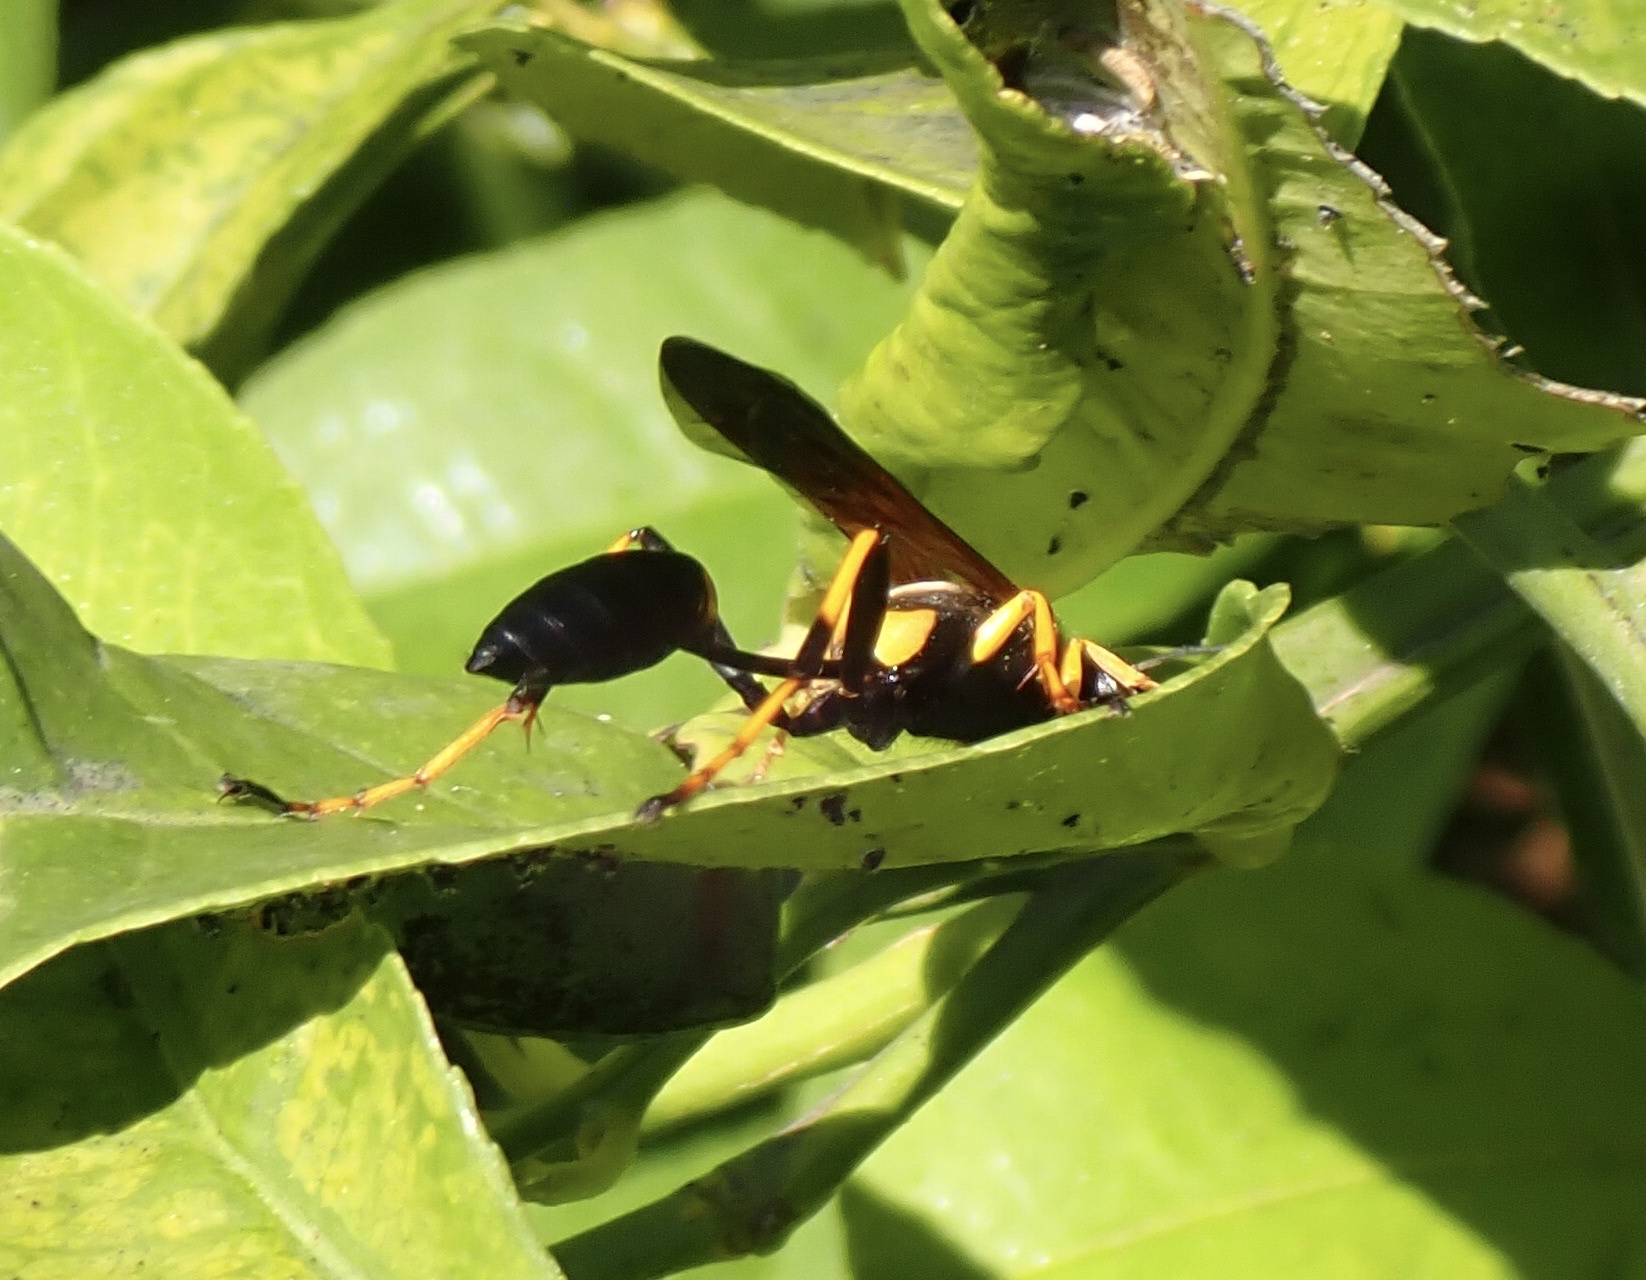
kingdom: Animalia
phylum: Arthropoda
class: Insecta
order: Hymenoptera
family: Sphecidae
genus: Sceliphron
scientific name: Sceliphron caementarium
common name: Mud dauber
